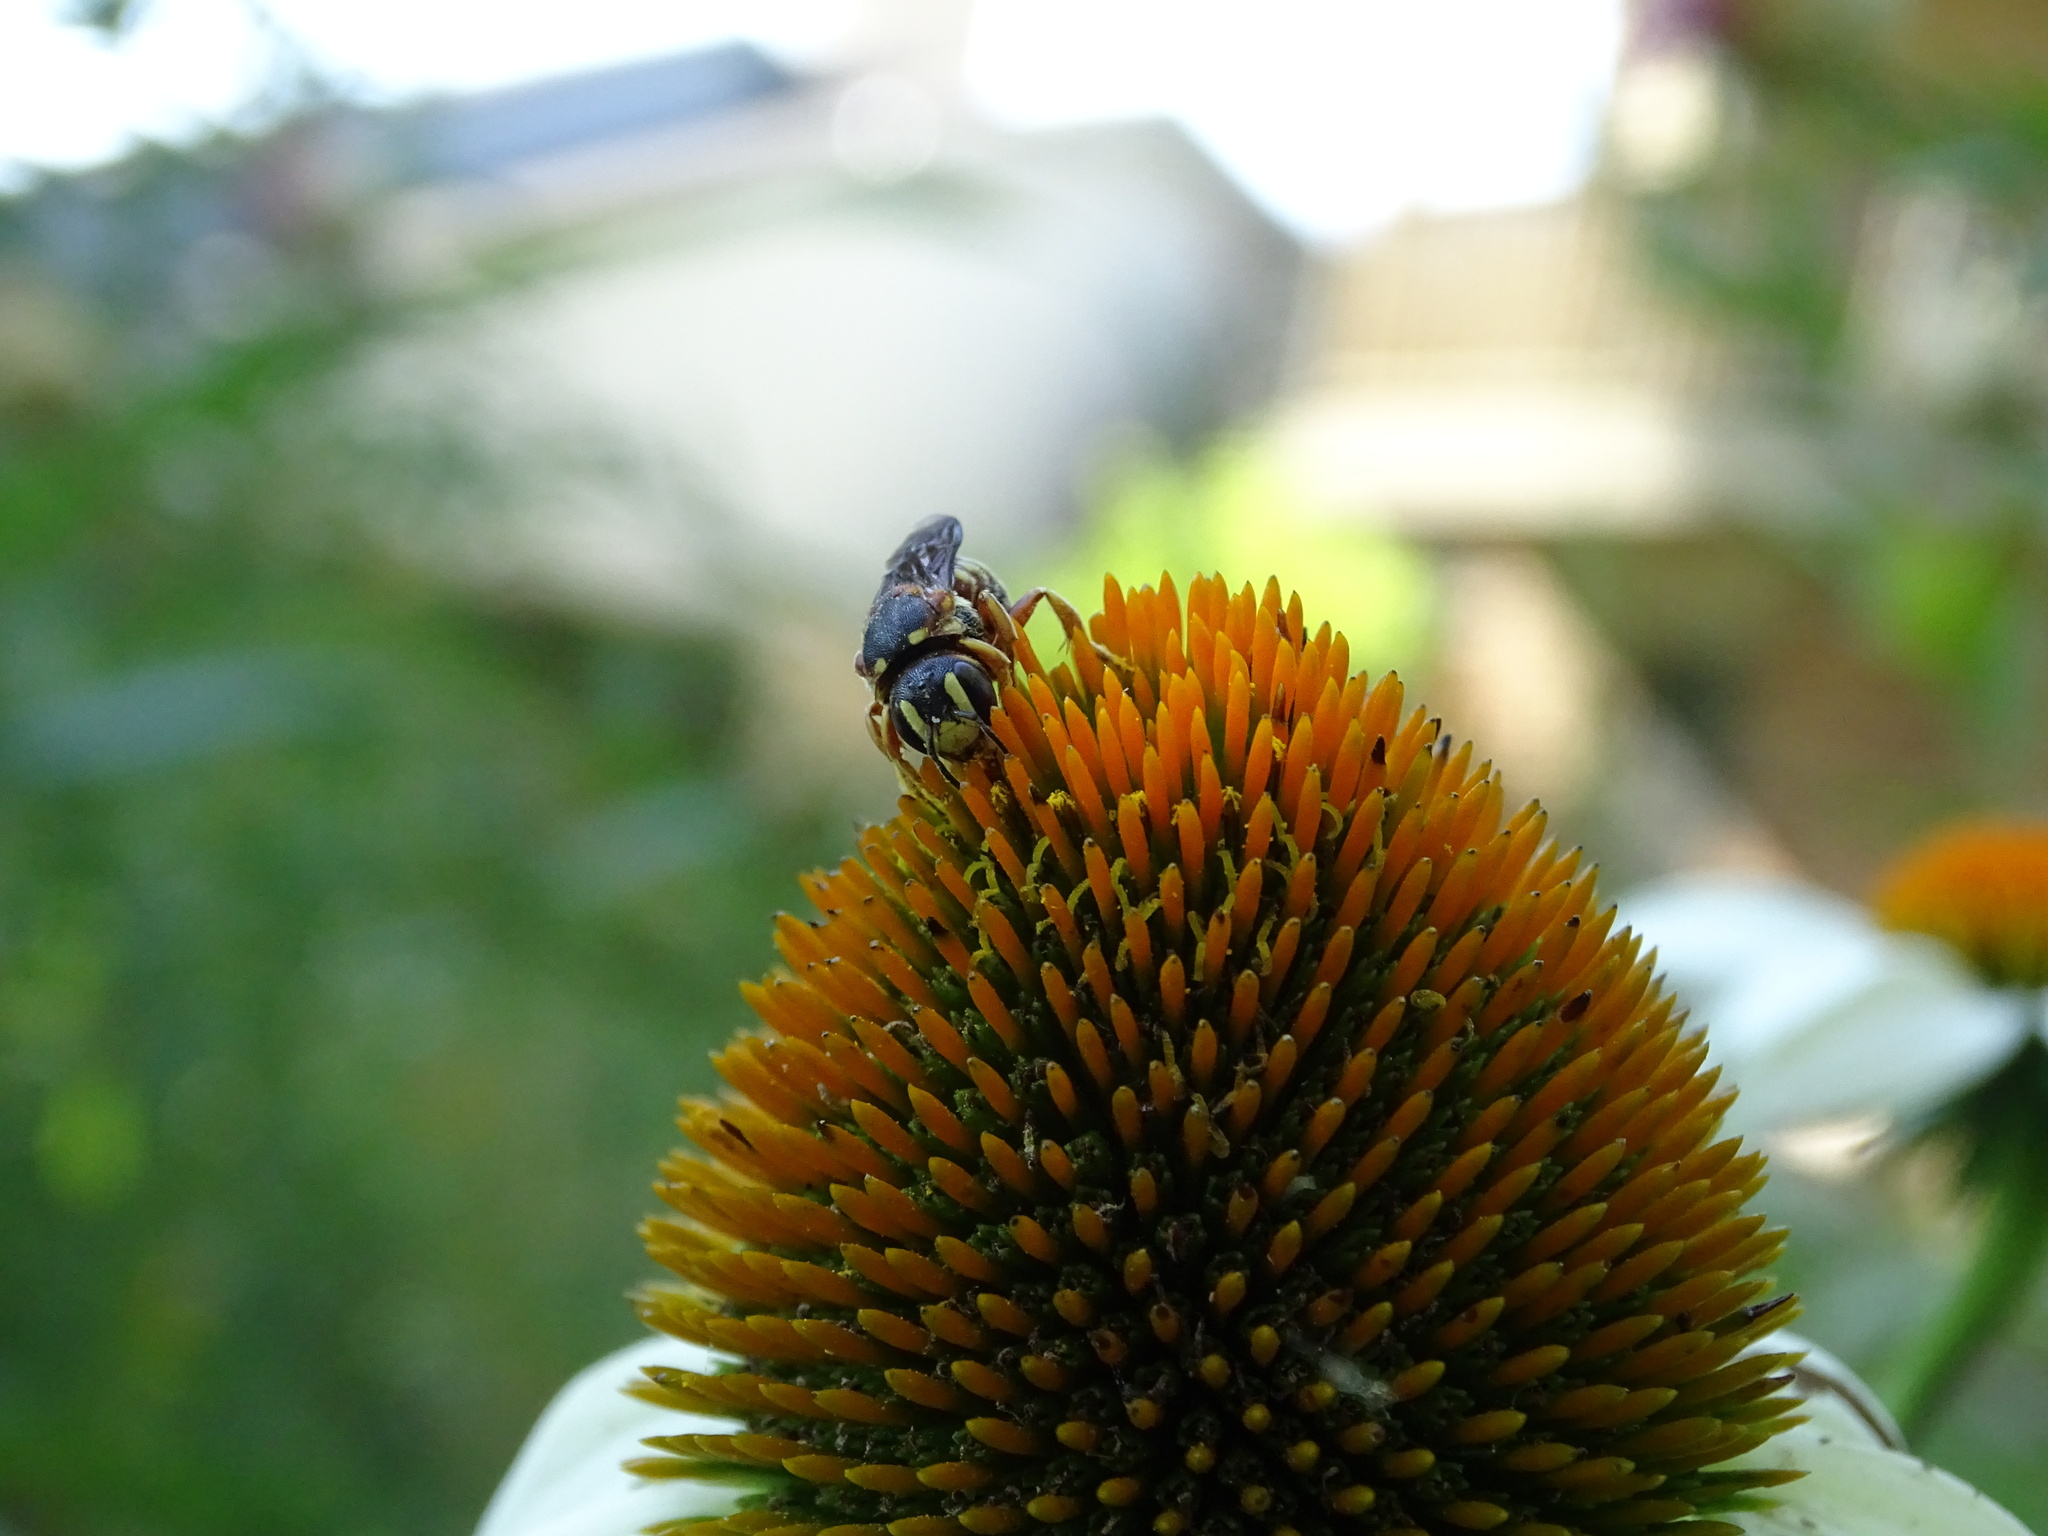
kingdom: Animalia
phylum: Arthropoda
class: Insecta
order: Hymenoptera
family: Megachilidae
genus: Dianthidium
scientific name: Dianthidium
